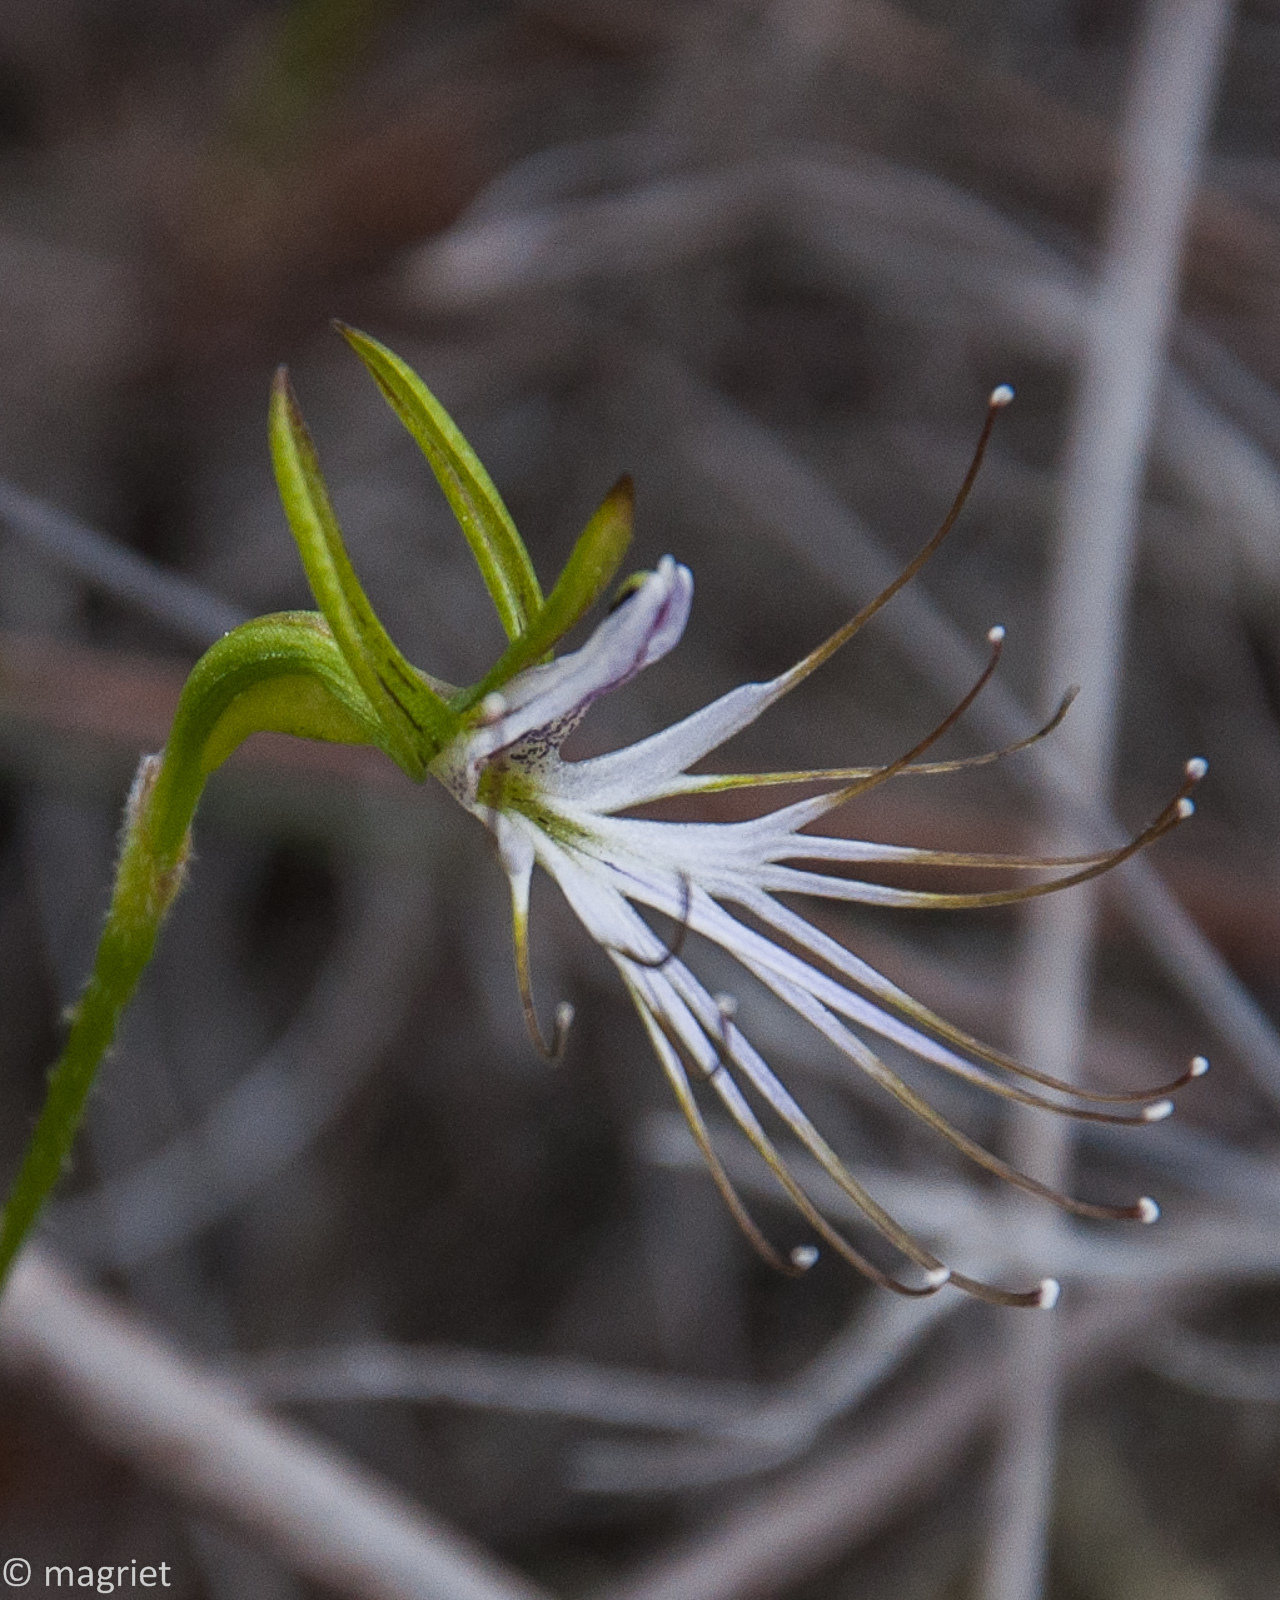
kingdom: Plantae
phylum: Tracheophyta
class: Liliopsida
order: Asparagales
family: Orchidaceae
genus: Holothrix
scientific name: Holothrix etheliae
